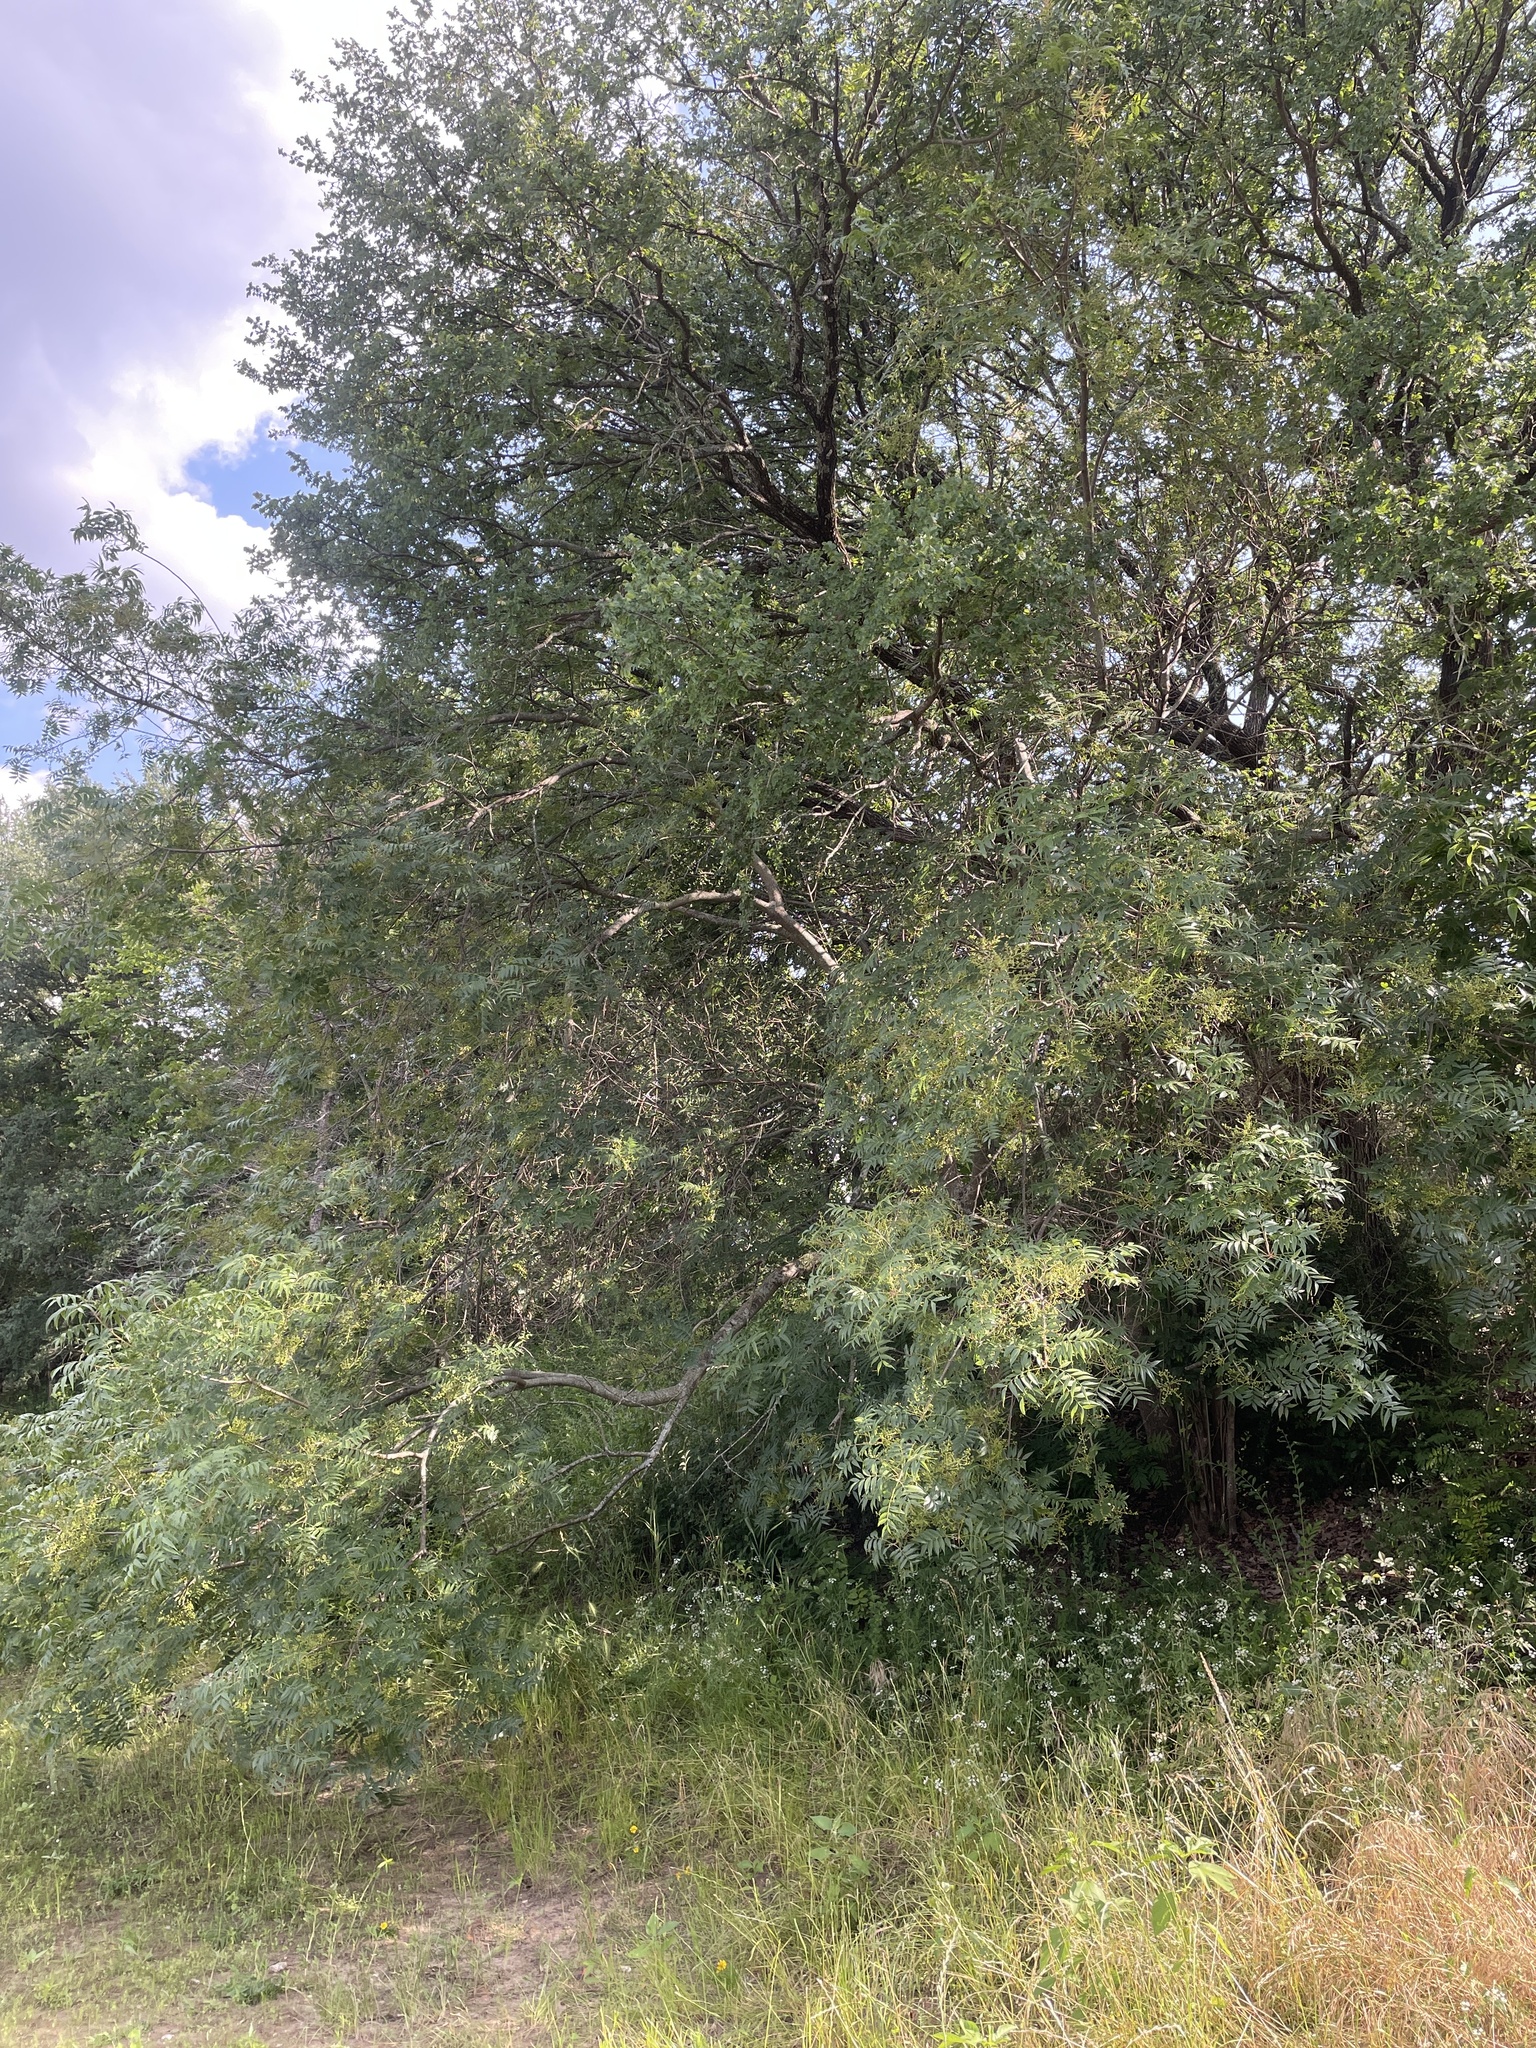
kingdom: Plantae
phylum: Tracheophyta
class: Magnoliopsida
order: Sapindales
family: Anacardiaceae
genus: Pistacia
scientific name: Pistacia chinensis
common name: Chinese pistache
